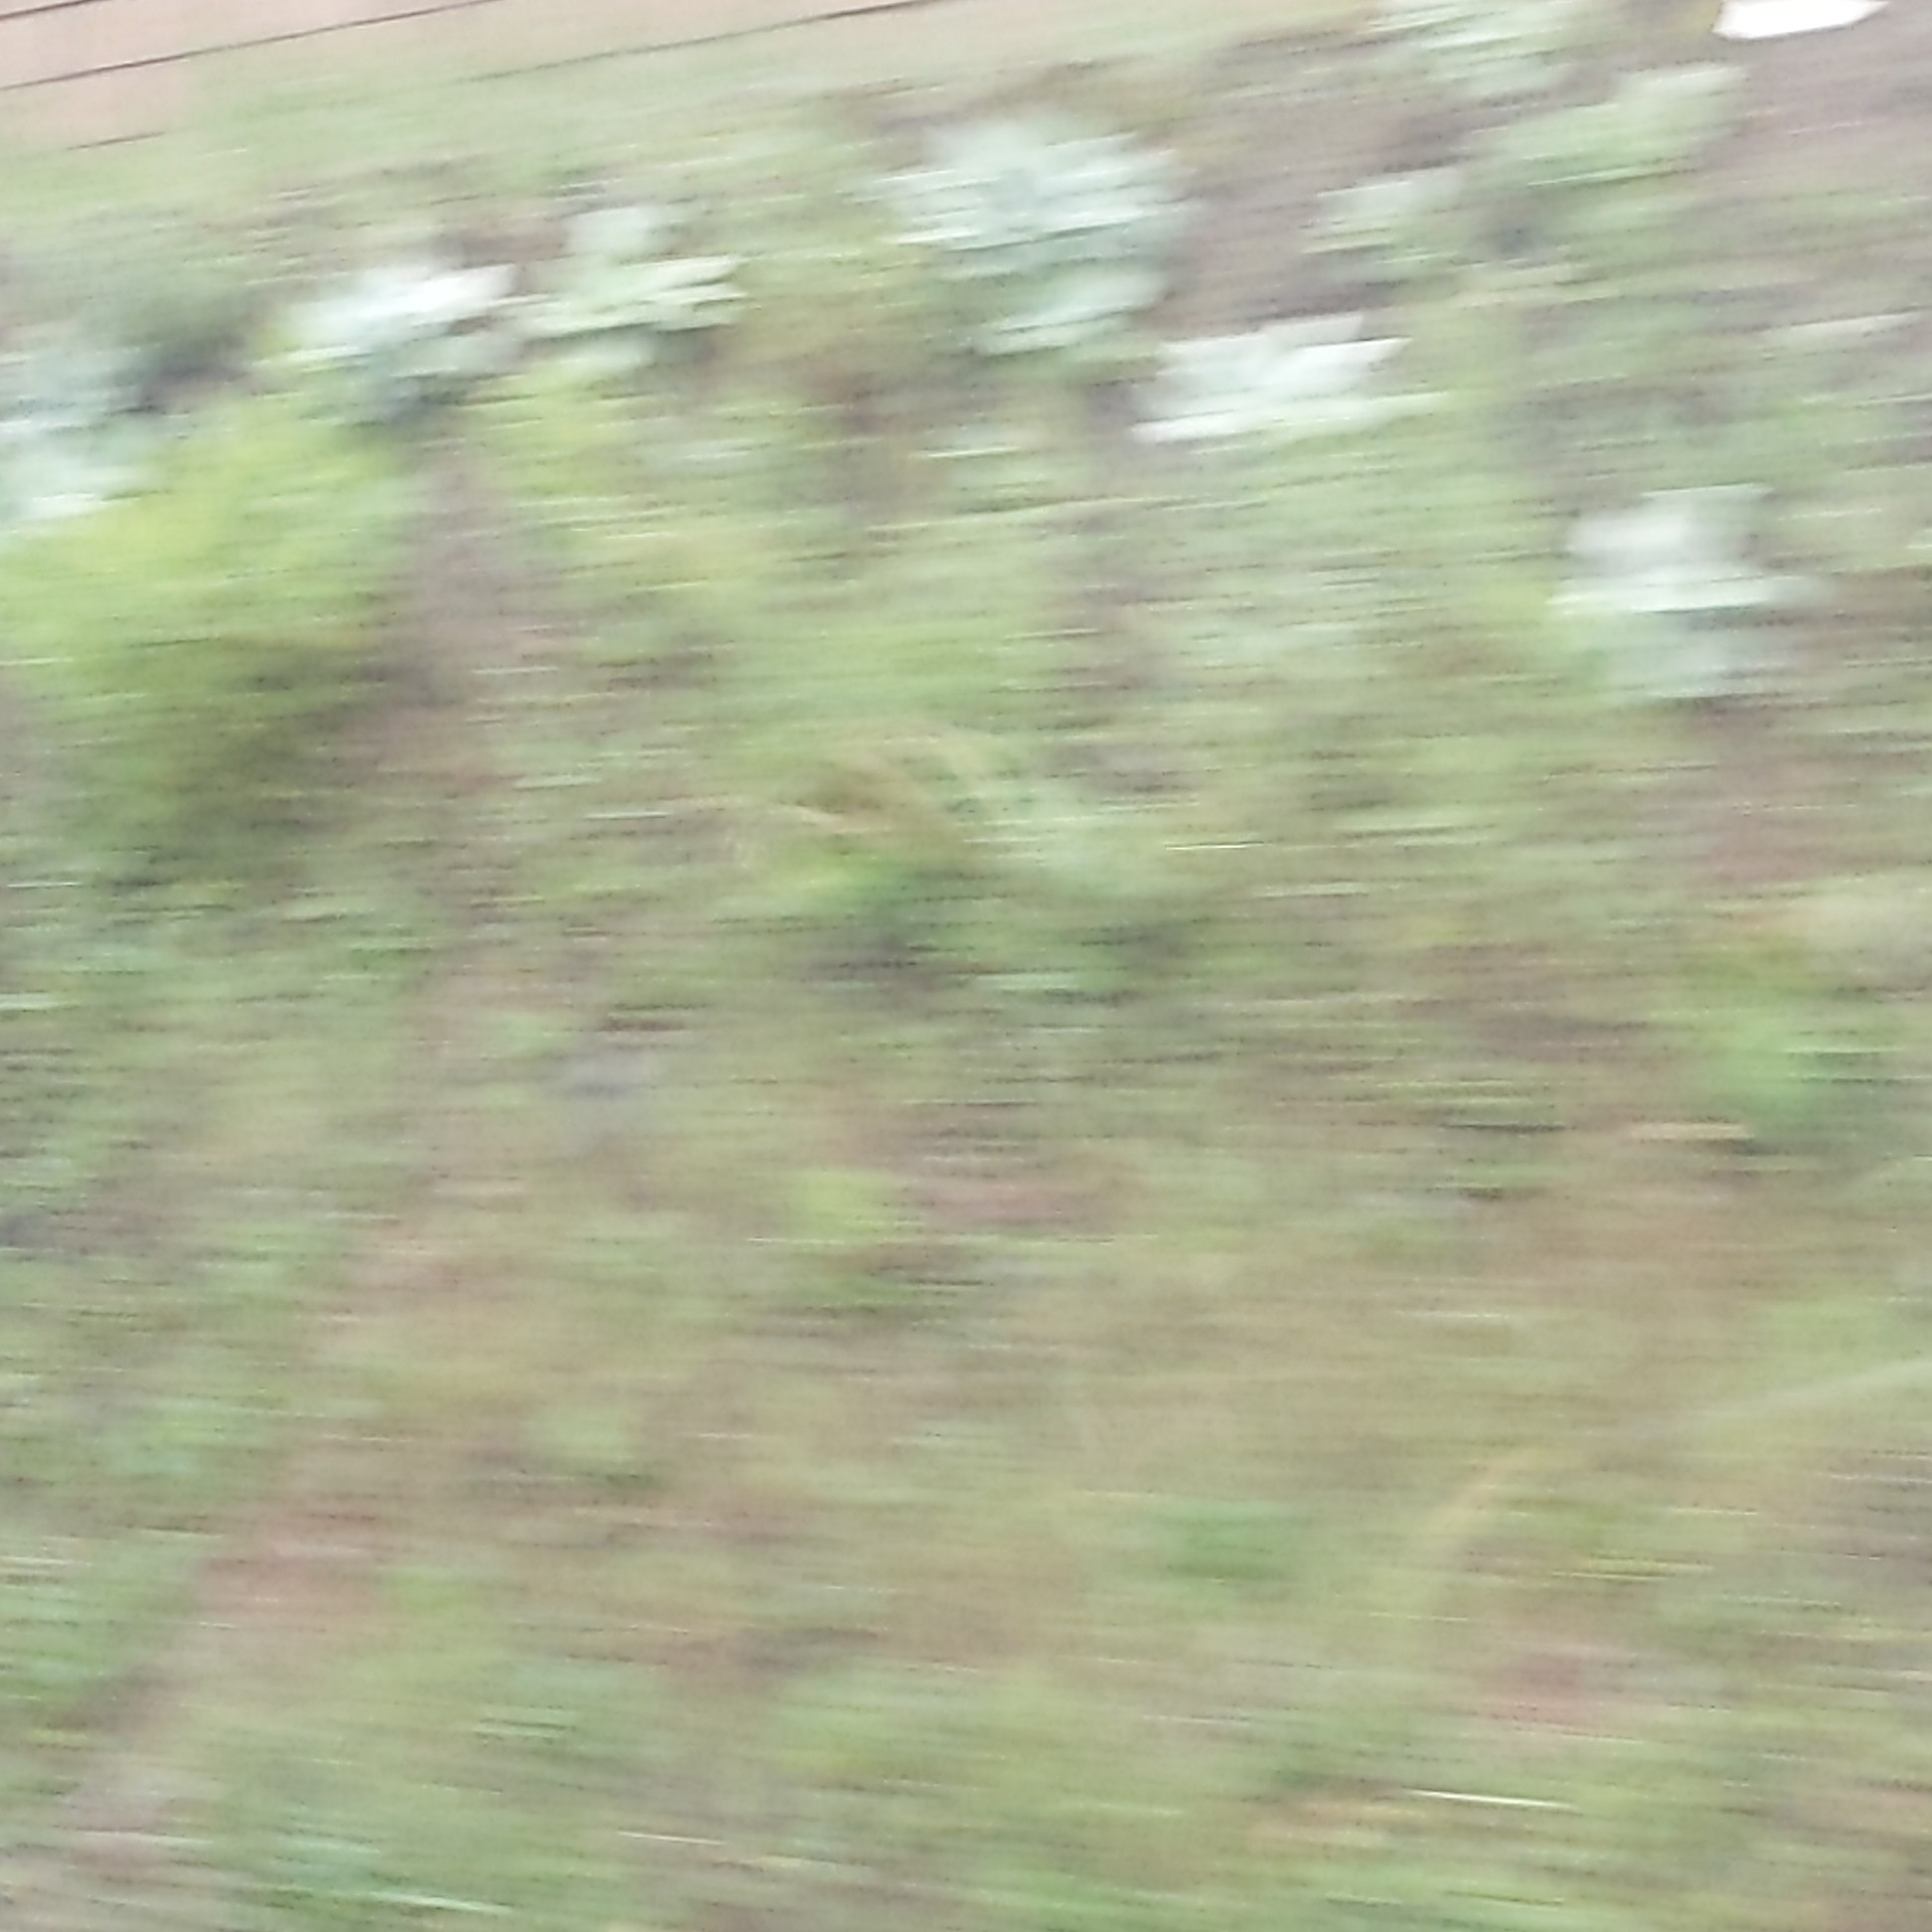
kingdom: Plantae
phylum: Tracheophyta
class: Magnoliopsida
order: Saxifragales
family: Crassulaceae
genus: Dudleya
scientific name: Dudleya pulverulenta
